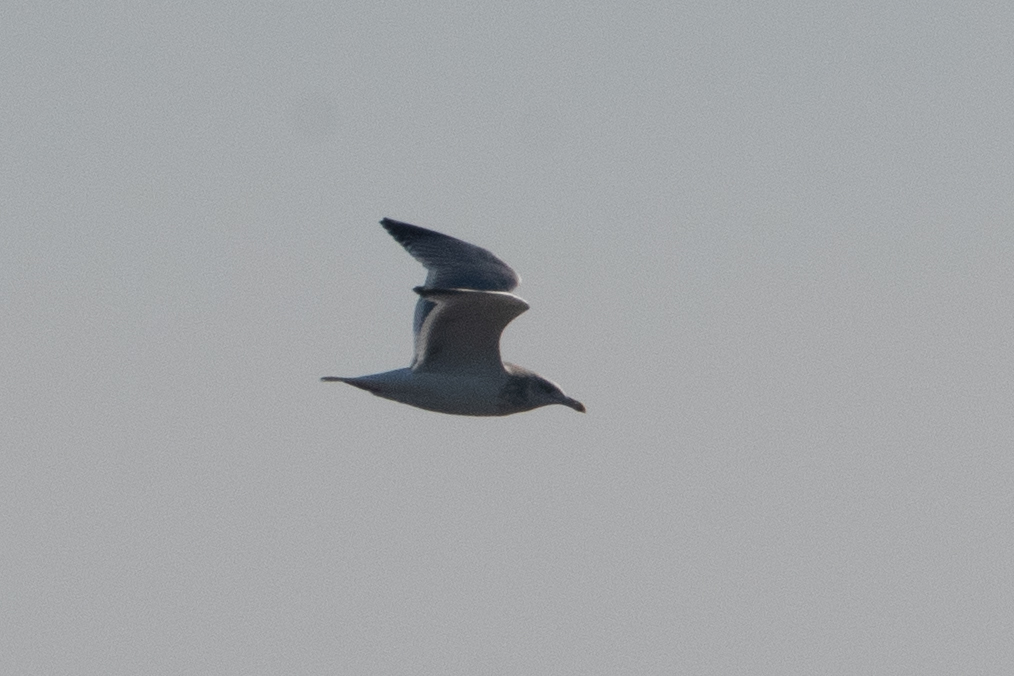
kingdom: Animalia
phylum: Chordata
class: Aves
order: Charadriiformes
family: Laridae
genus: Larus
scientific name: Larus
